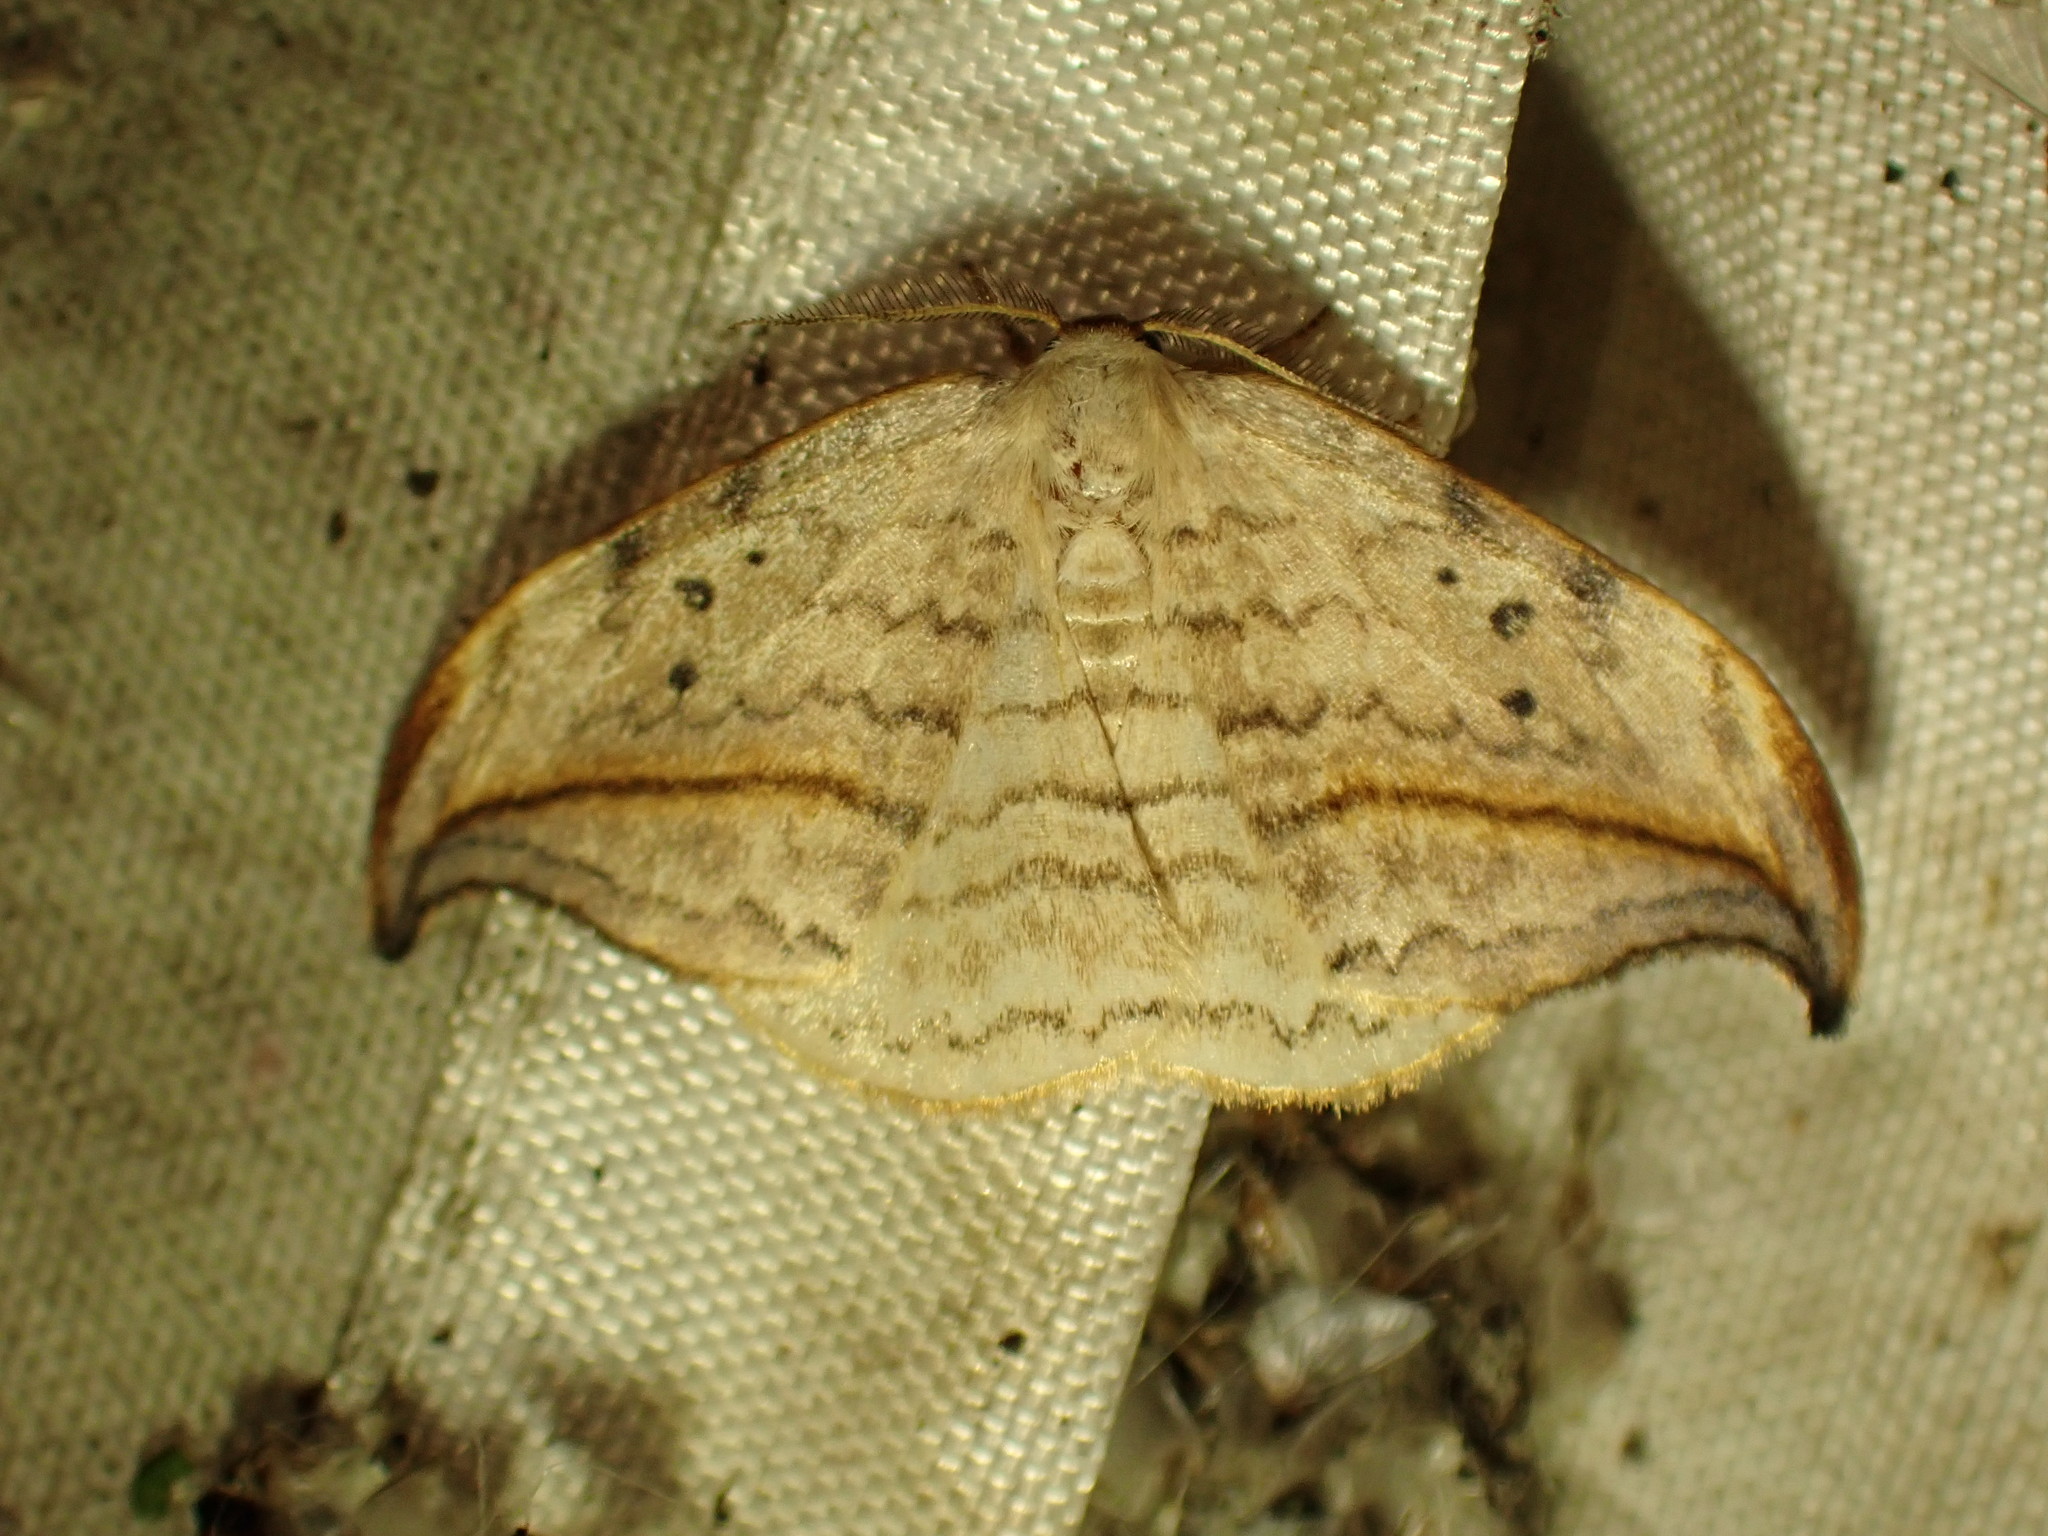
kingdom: Animalia
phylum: Arthropoda
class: Insecta
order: Lepidoptera
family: Drepanidae
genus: Drepana
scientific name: Drepana arcuata
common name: Arched hooktip moth
